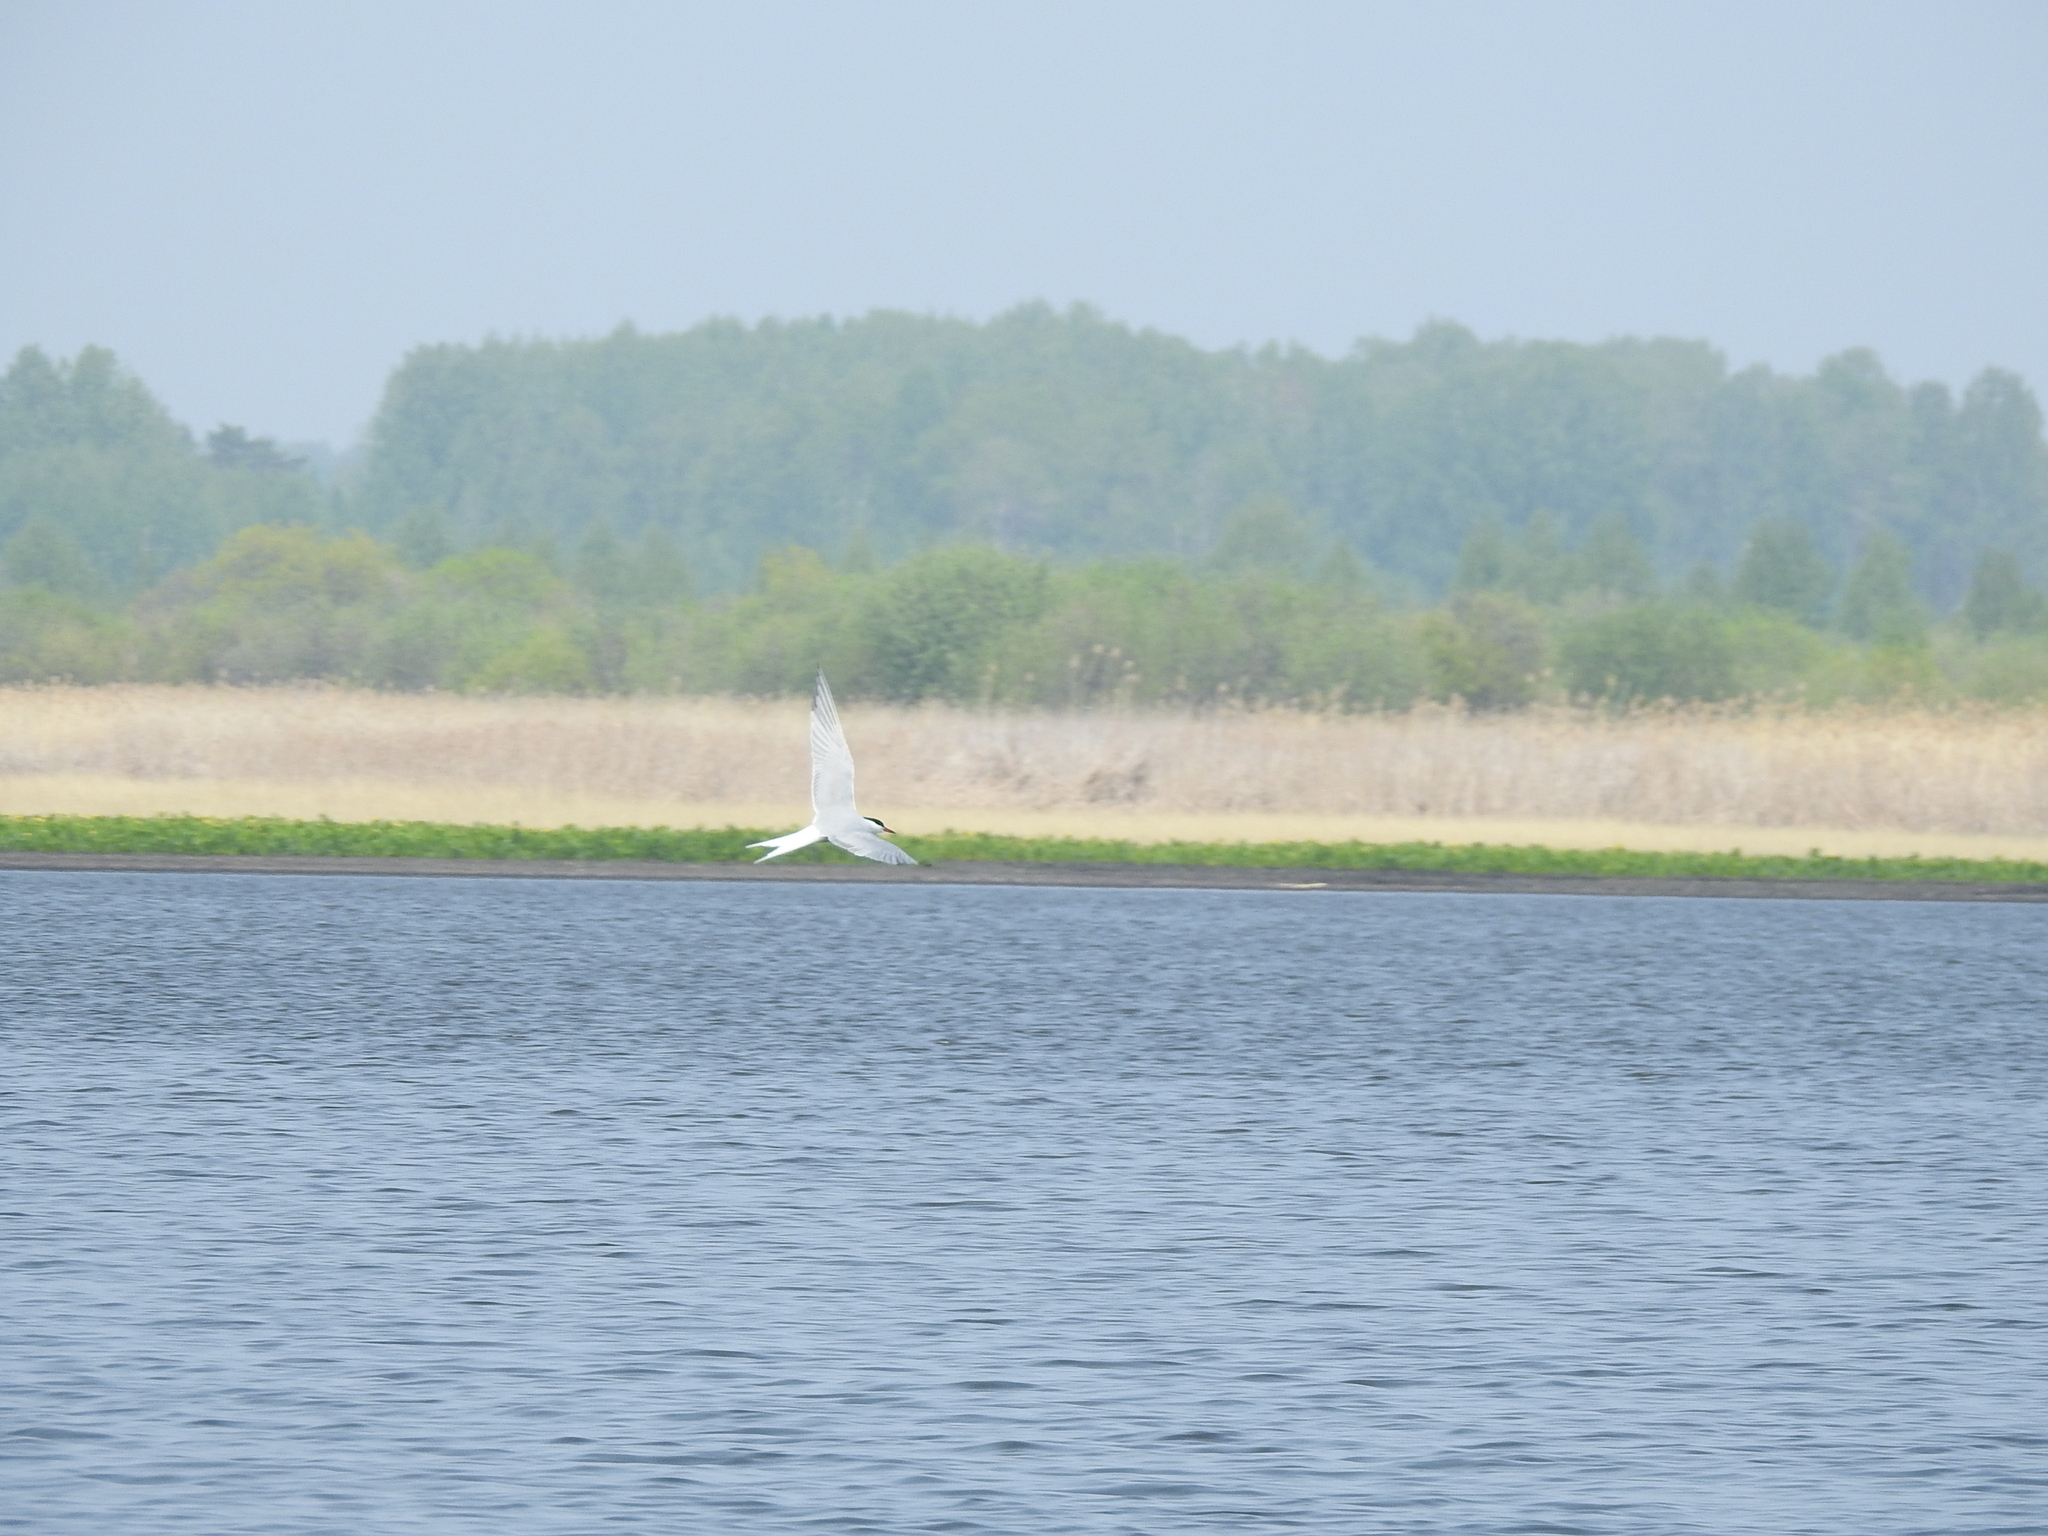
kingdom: Animalia
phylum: Chordata
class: Aves
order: Charadriiformes
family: Laridae
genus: Sterna
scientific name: Sterna hirundo
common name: Common tern
